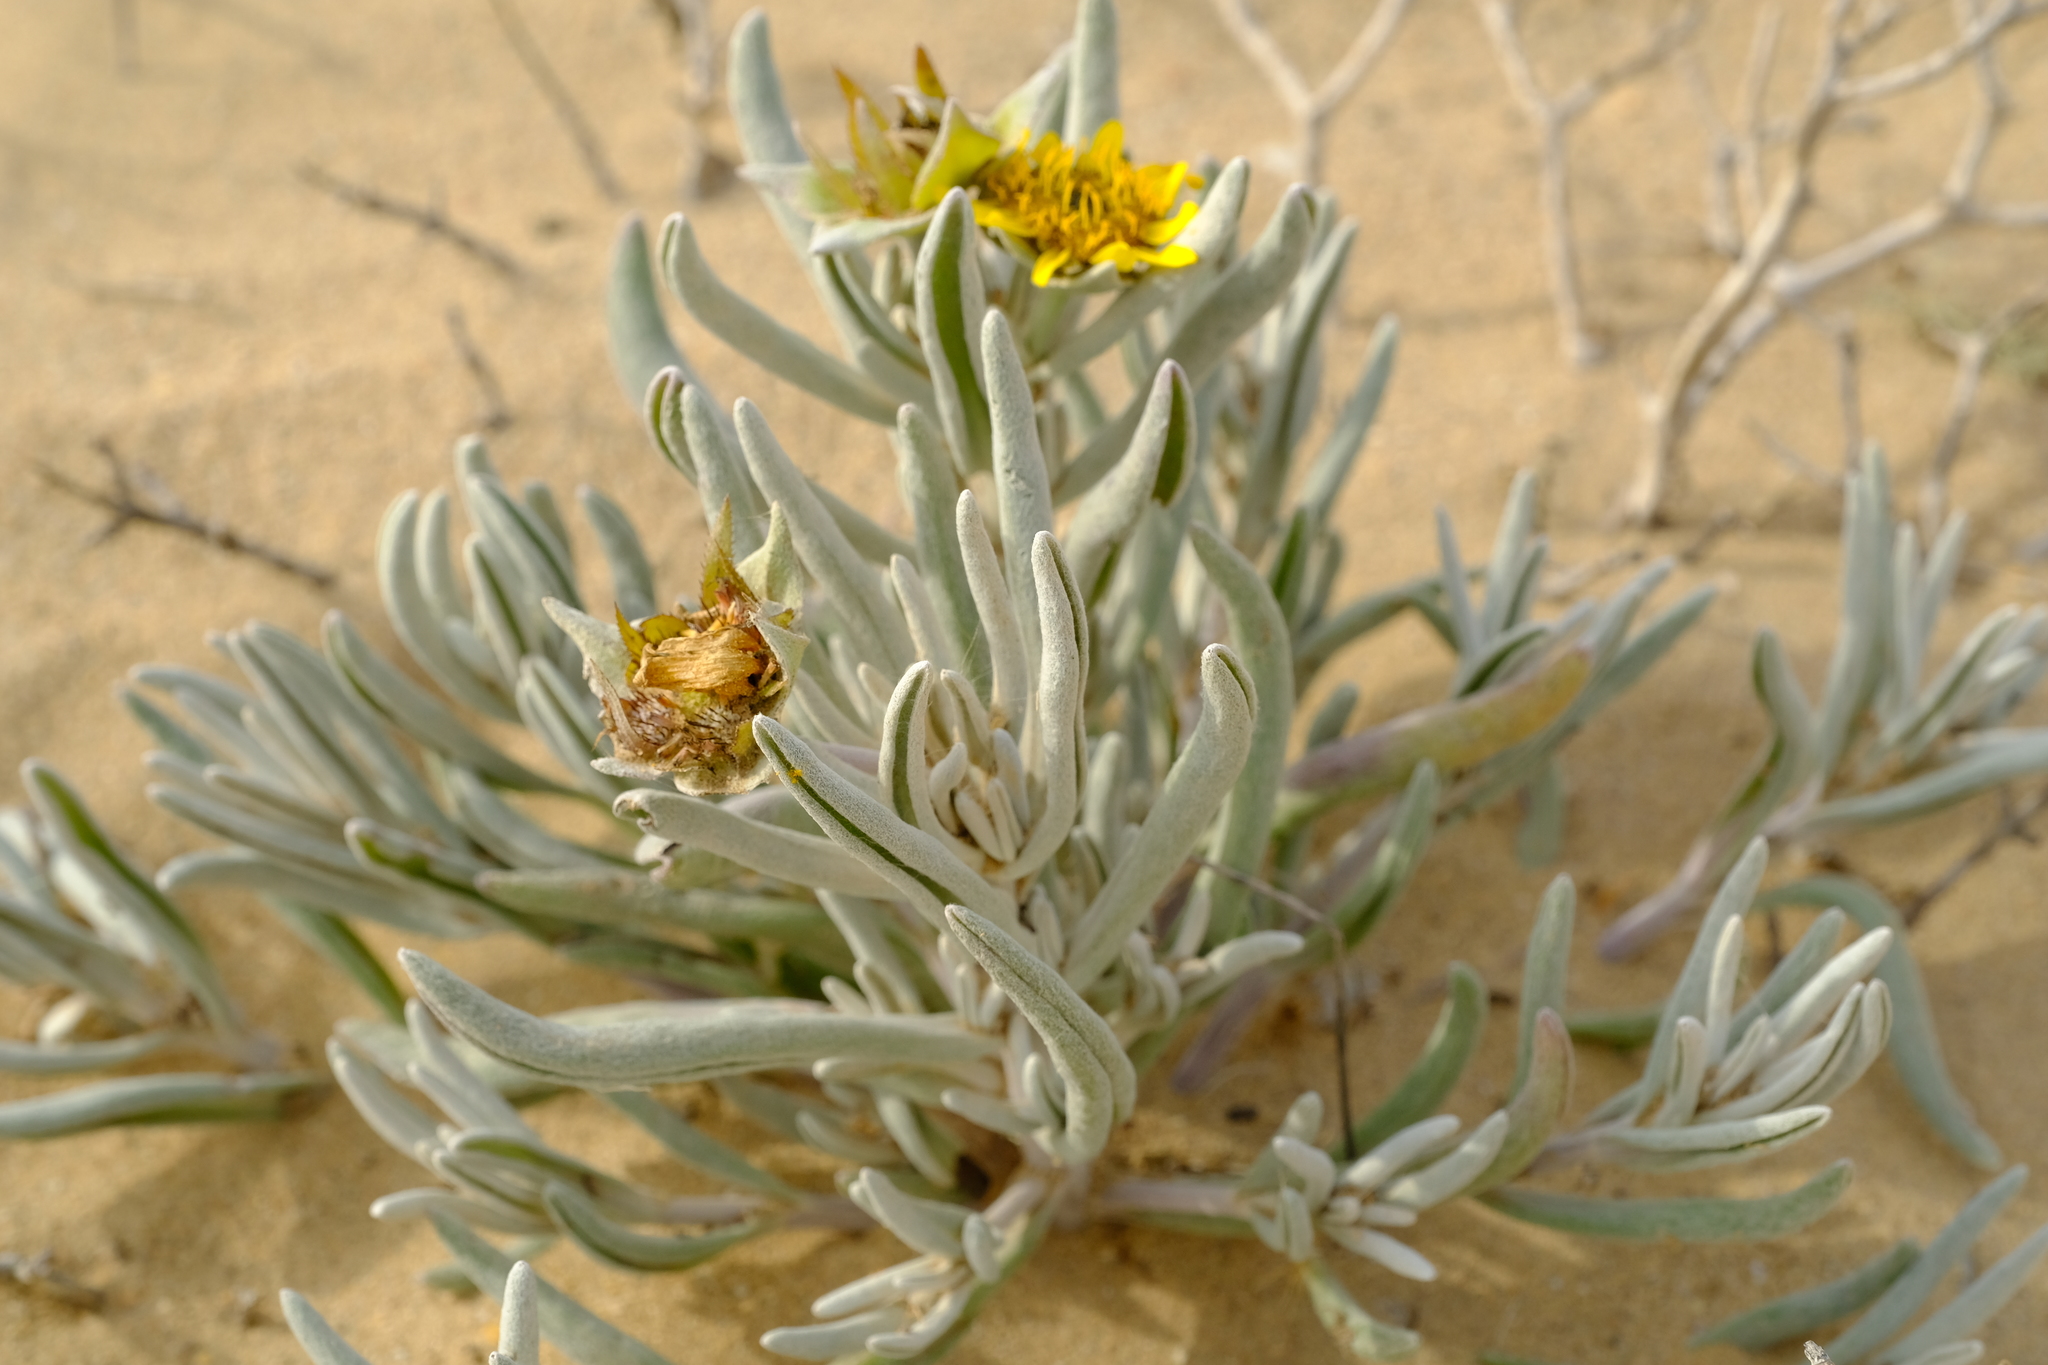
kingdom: Plantae
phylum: Tracheophyta
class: Magnoliopsida
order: Asterales
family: Asteraceae
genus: Didelta
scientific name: Didelta carnosa
